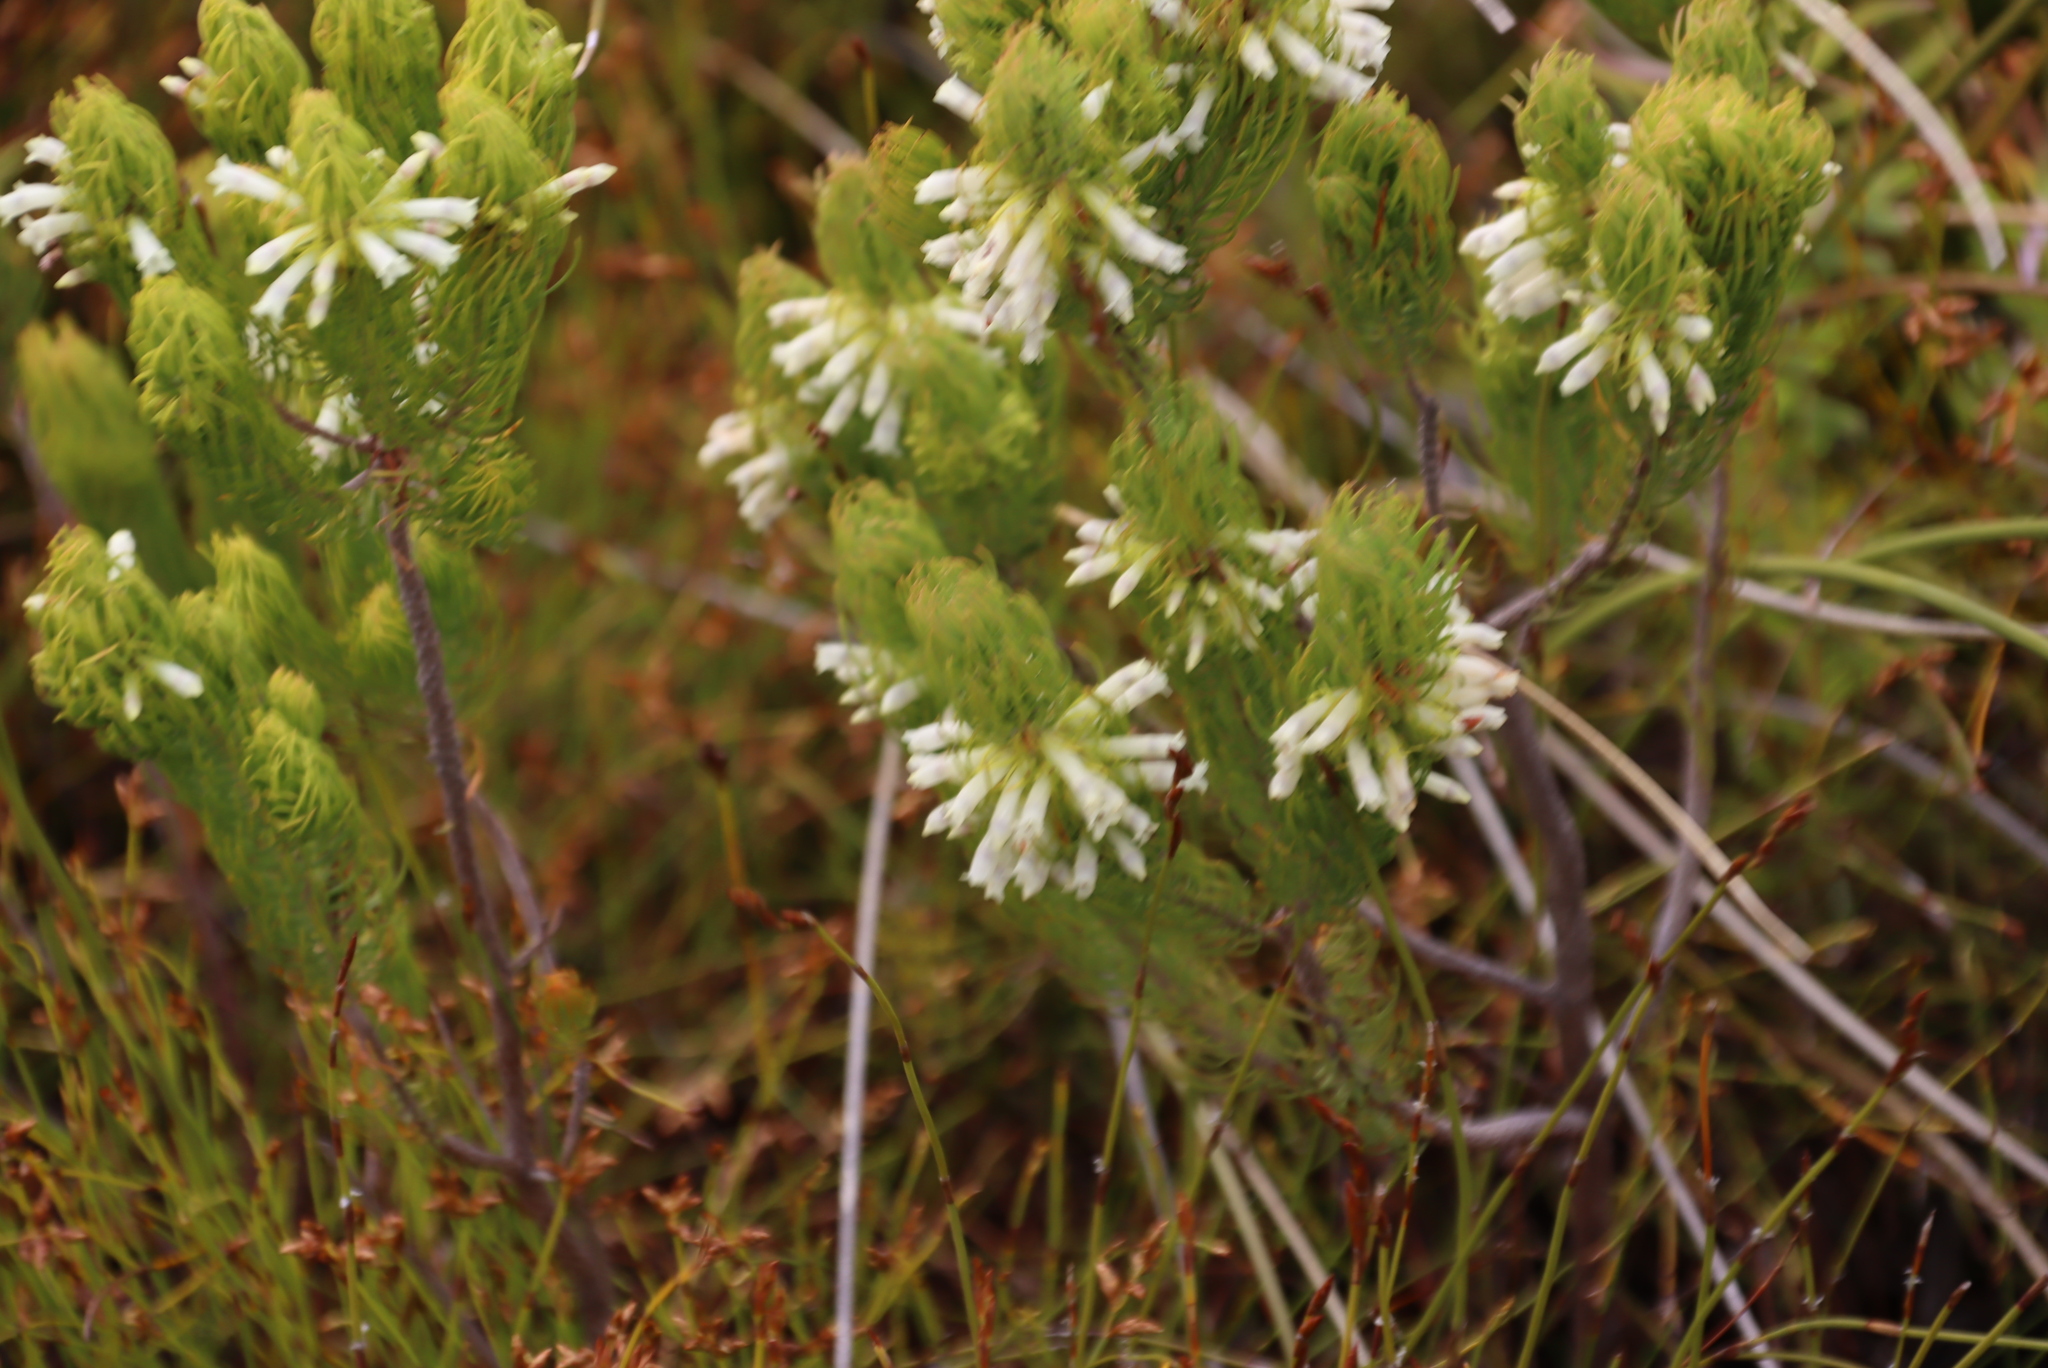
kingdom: Plantae
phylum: Tracheophyta
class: Magnoliopsida
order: Ericales
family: Ericaceae
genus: Erica
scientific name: Erica viscaria
